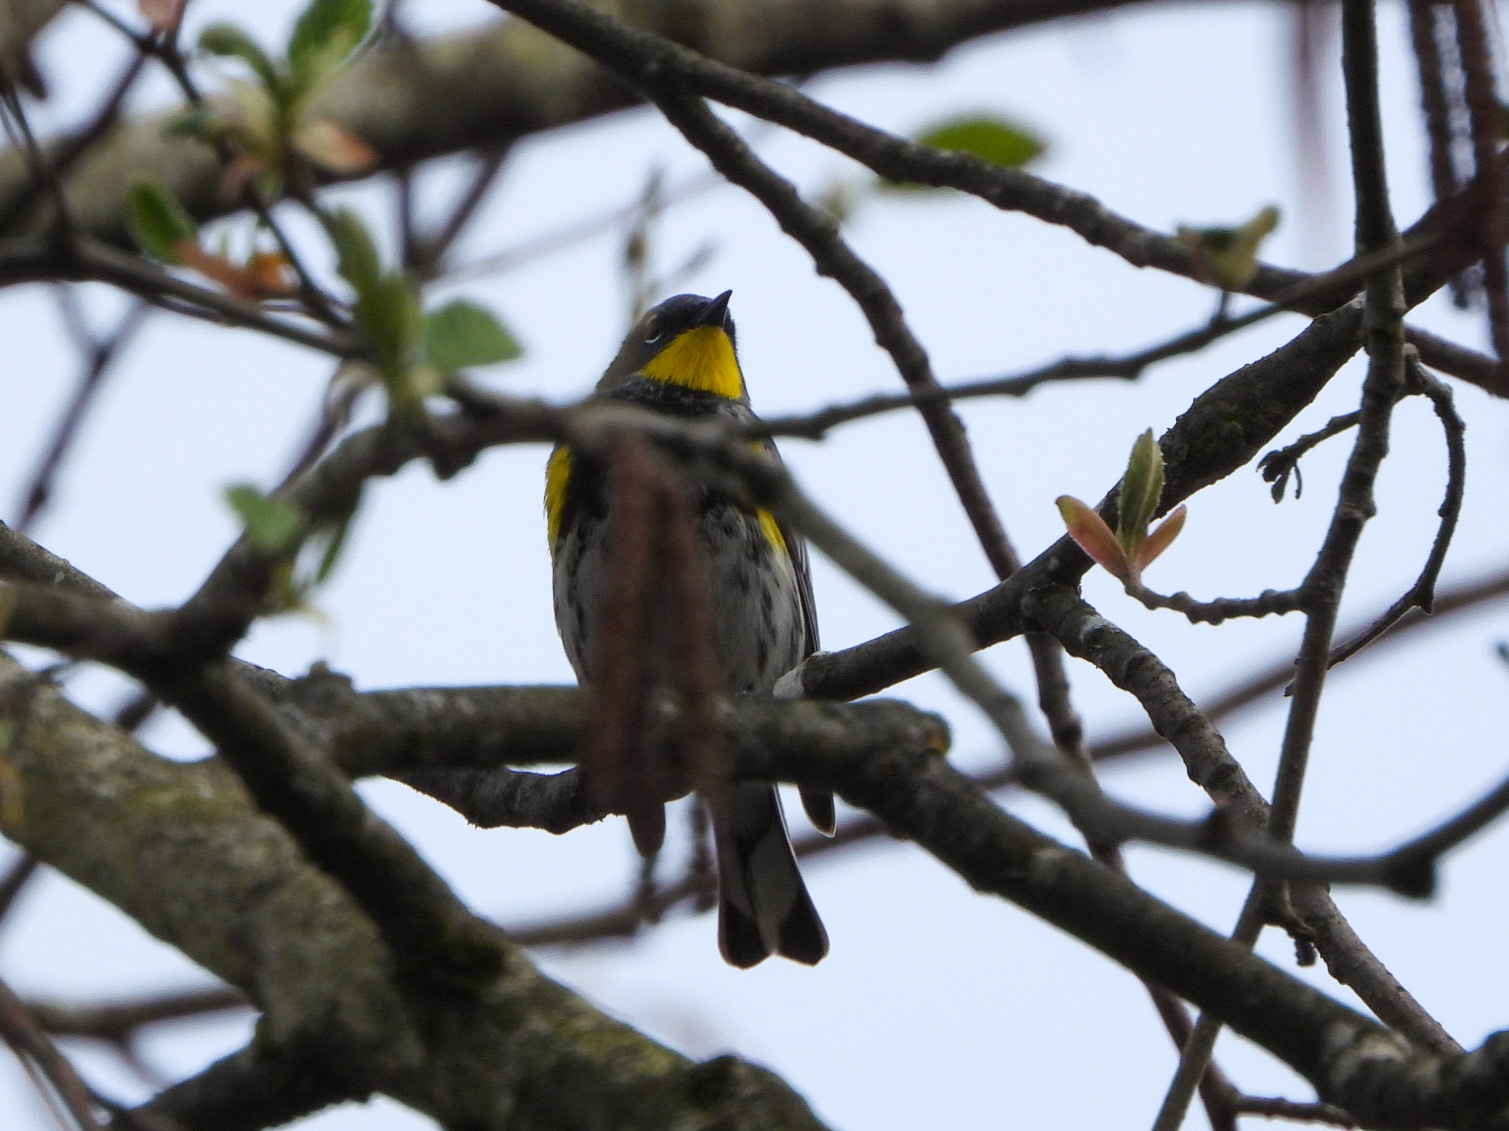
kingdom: Animalia
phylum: Chordata
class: Aves
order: Passeriformes
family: Parulidae
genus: Setophaga
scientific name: Setophaga auduboni
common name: Audubon's warbler
